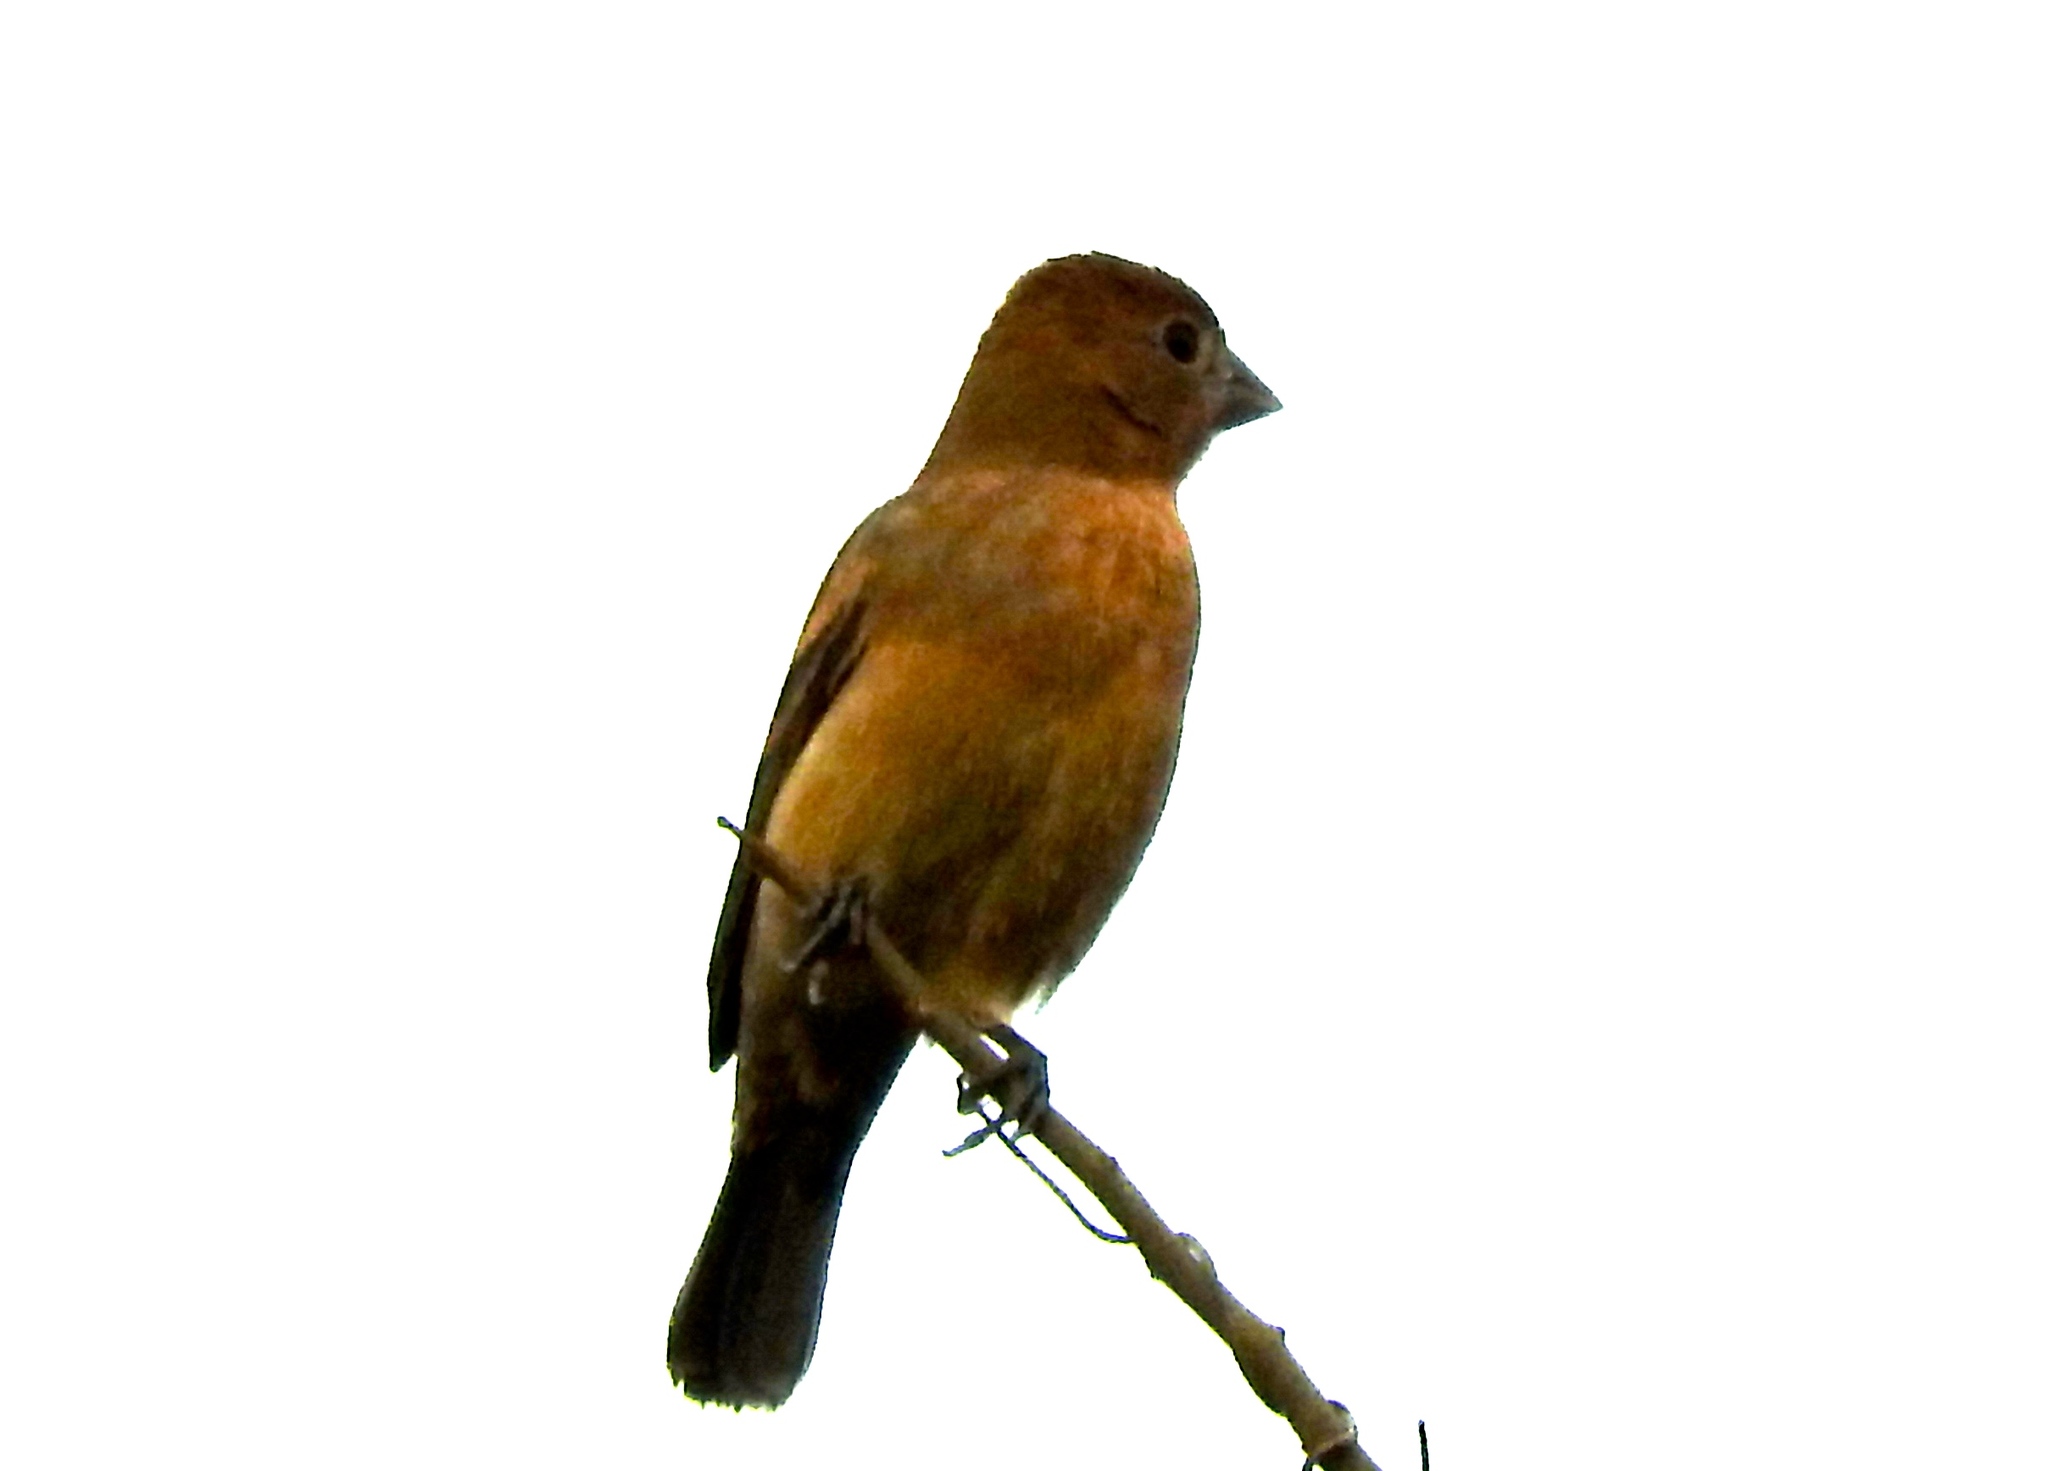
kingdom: Animalia
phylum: Chordata
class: Aves
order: Passeriformes
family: Cardinalidae
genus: Passerina
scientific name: Passerina caerulea
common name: Blue grosbeak
